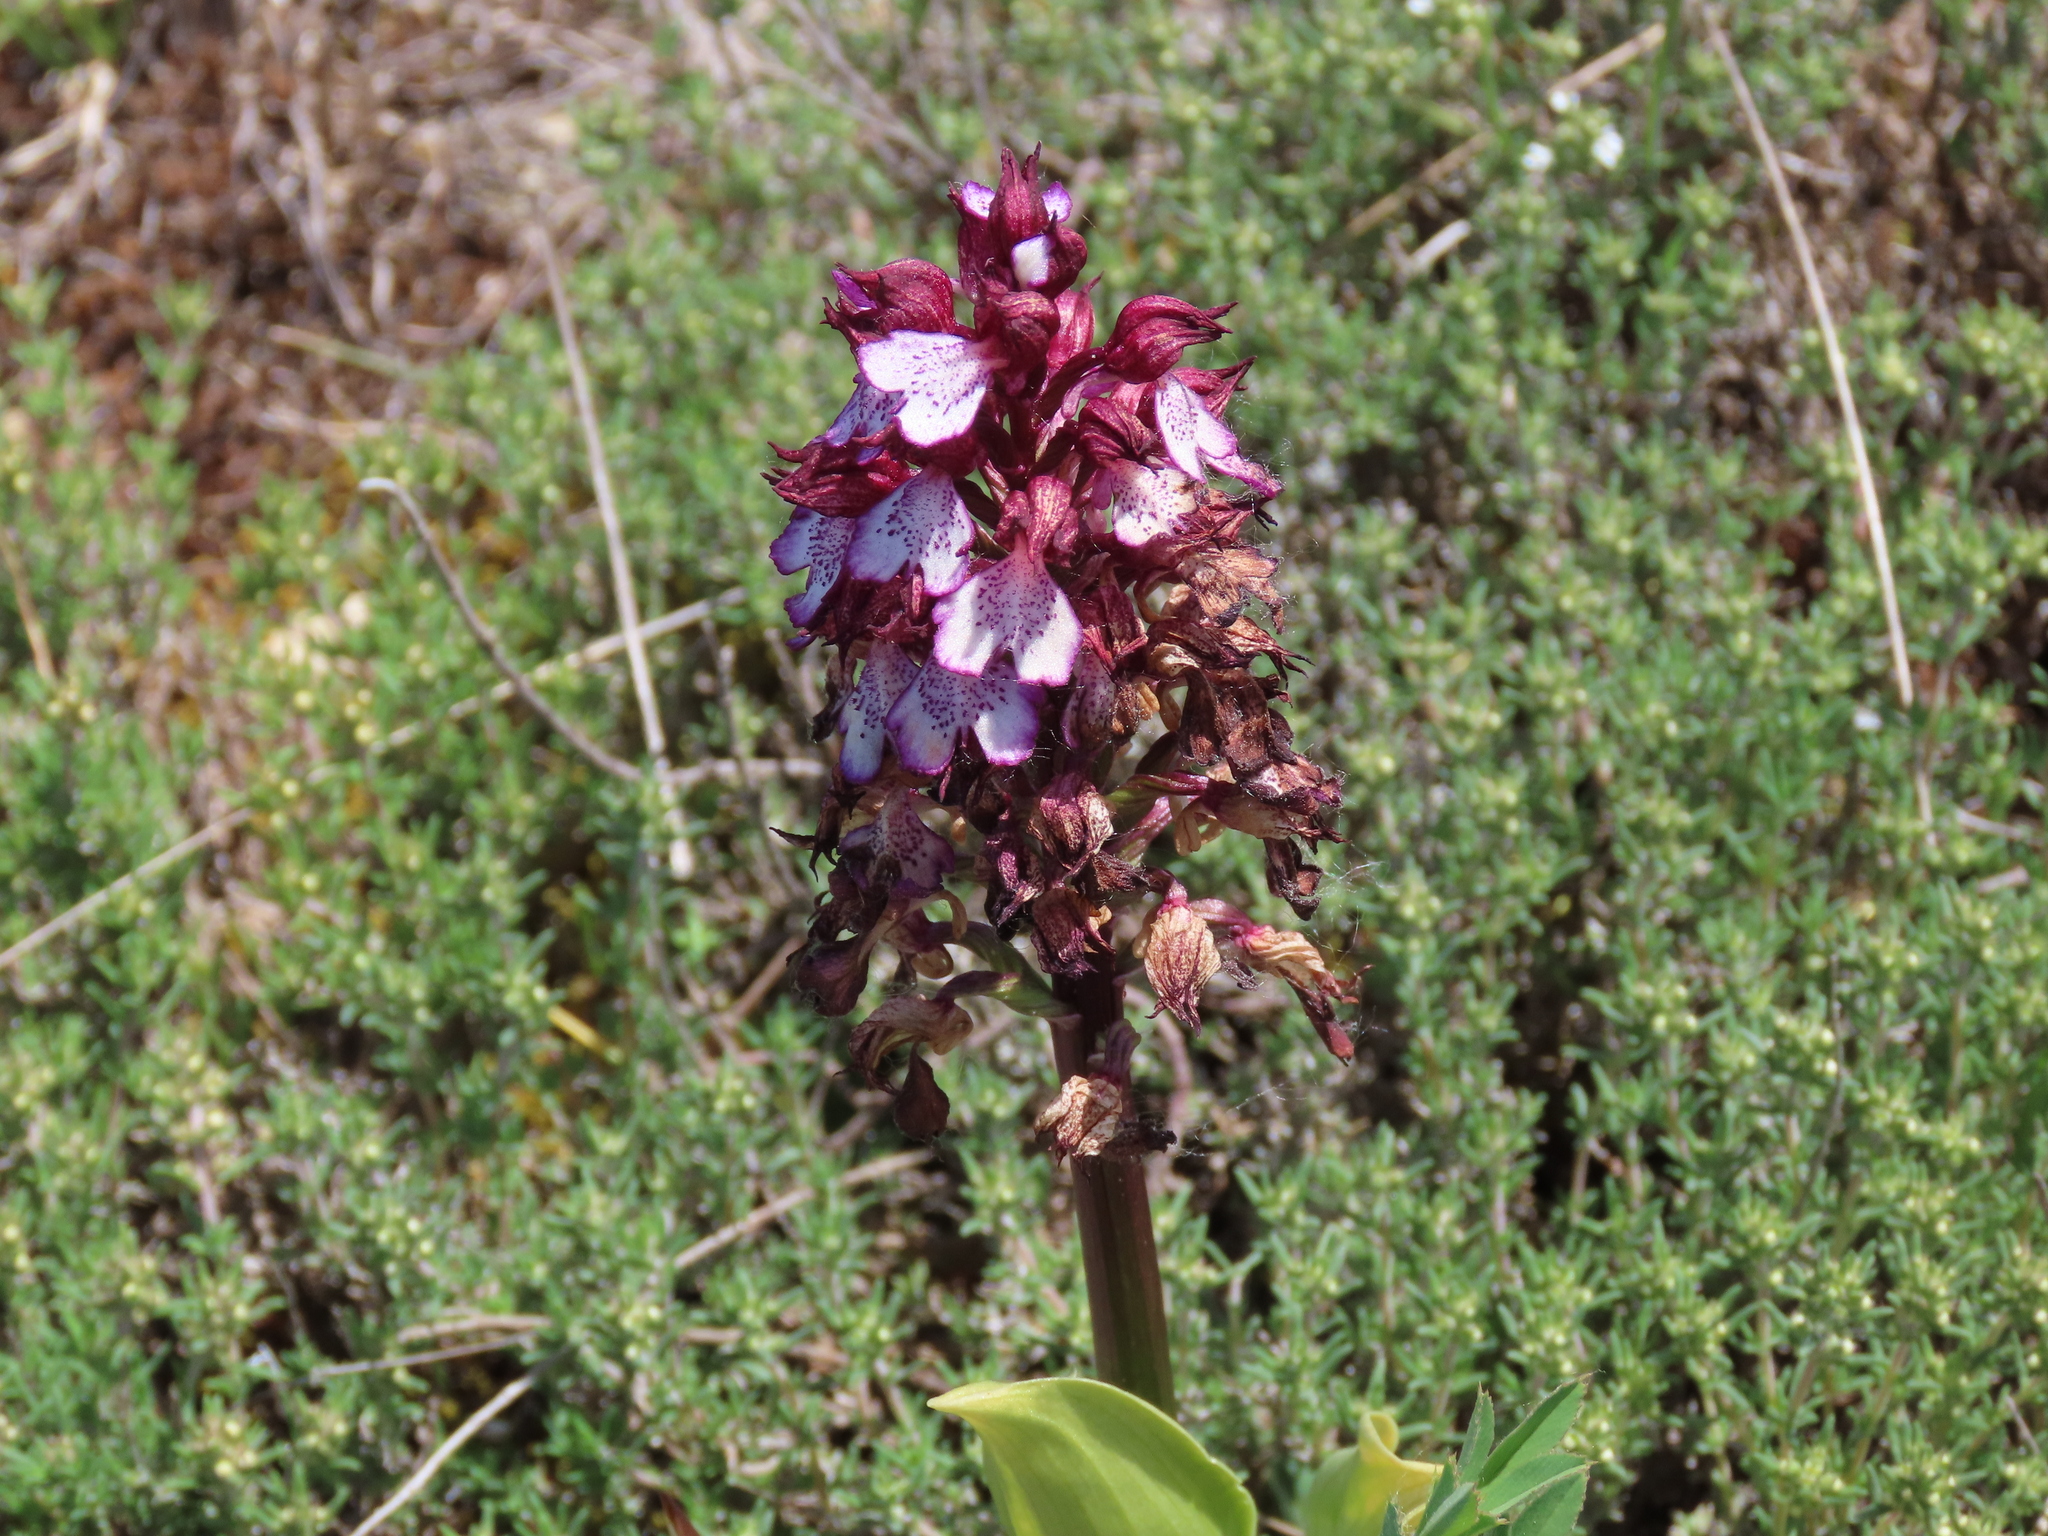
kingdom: Plantae
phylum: Tracheophyta
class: Liliopsida
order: Asparagales
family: Orchidaceae
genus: Orchis
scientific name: Orchis purpurea
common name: Lady orchid
